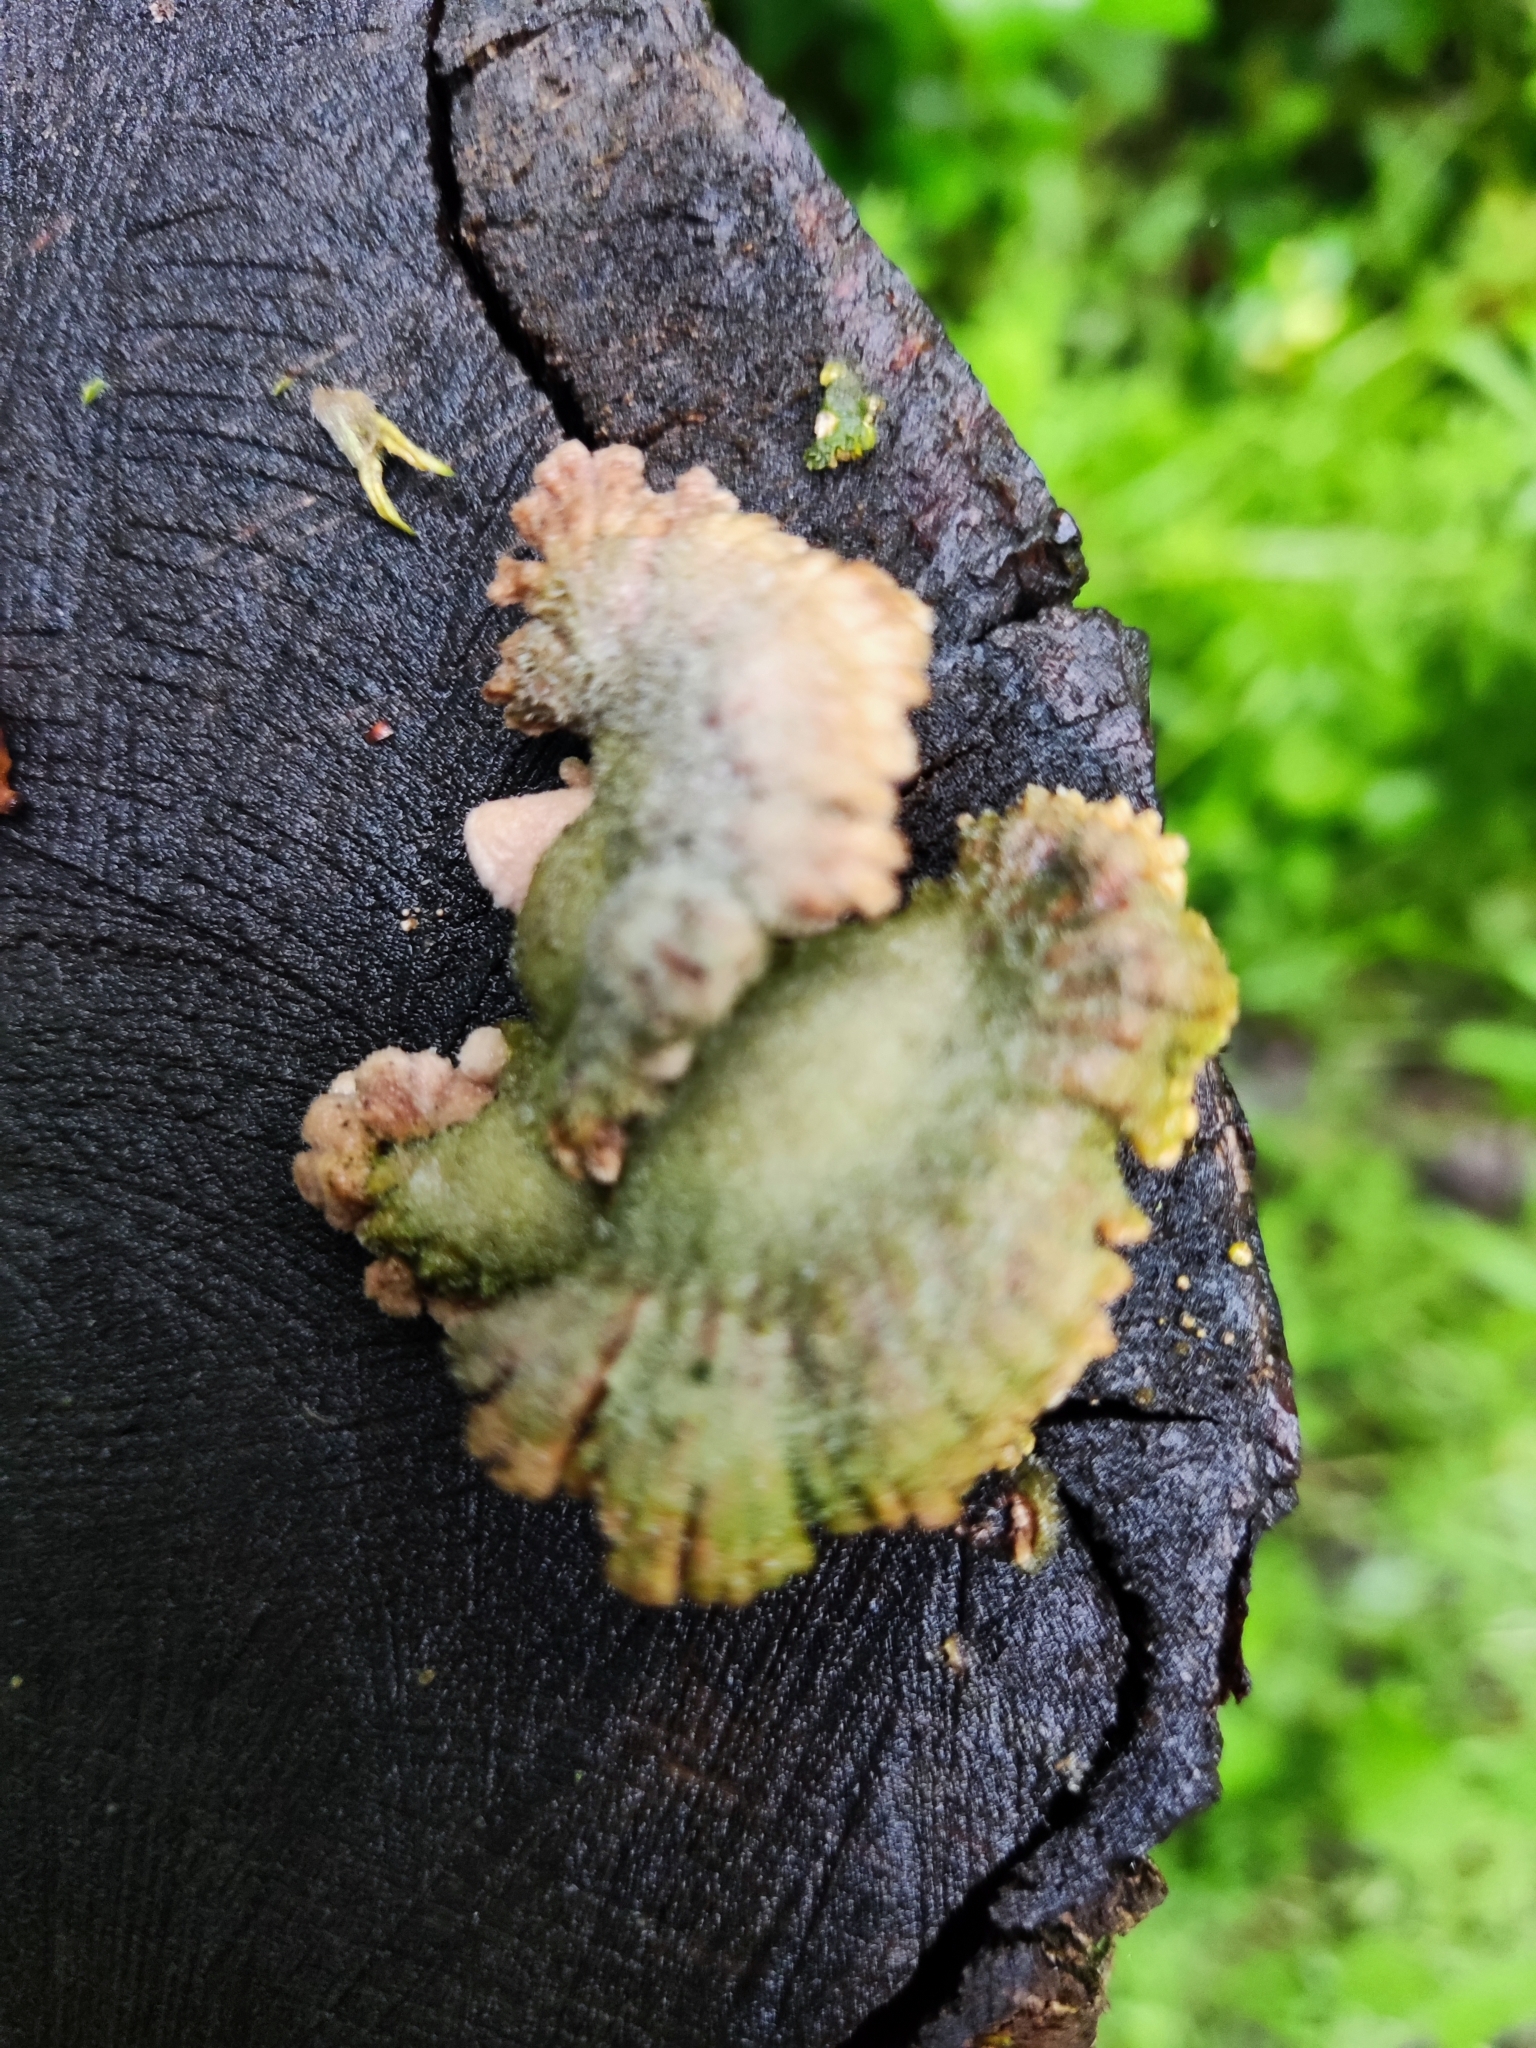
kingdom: Fungi
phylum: Basidiomycota
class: Agaricomycetes
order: Agaricales
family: Schizophyllaceae
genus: Schizophyllum
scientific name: Schizophyllum commune
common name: Common porecrust
